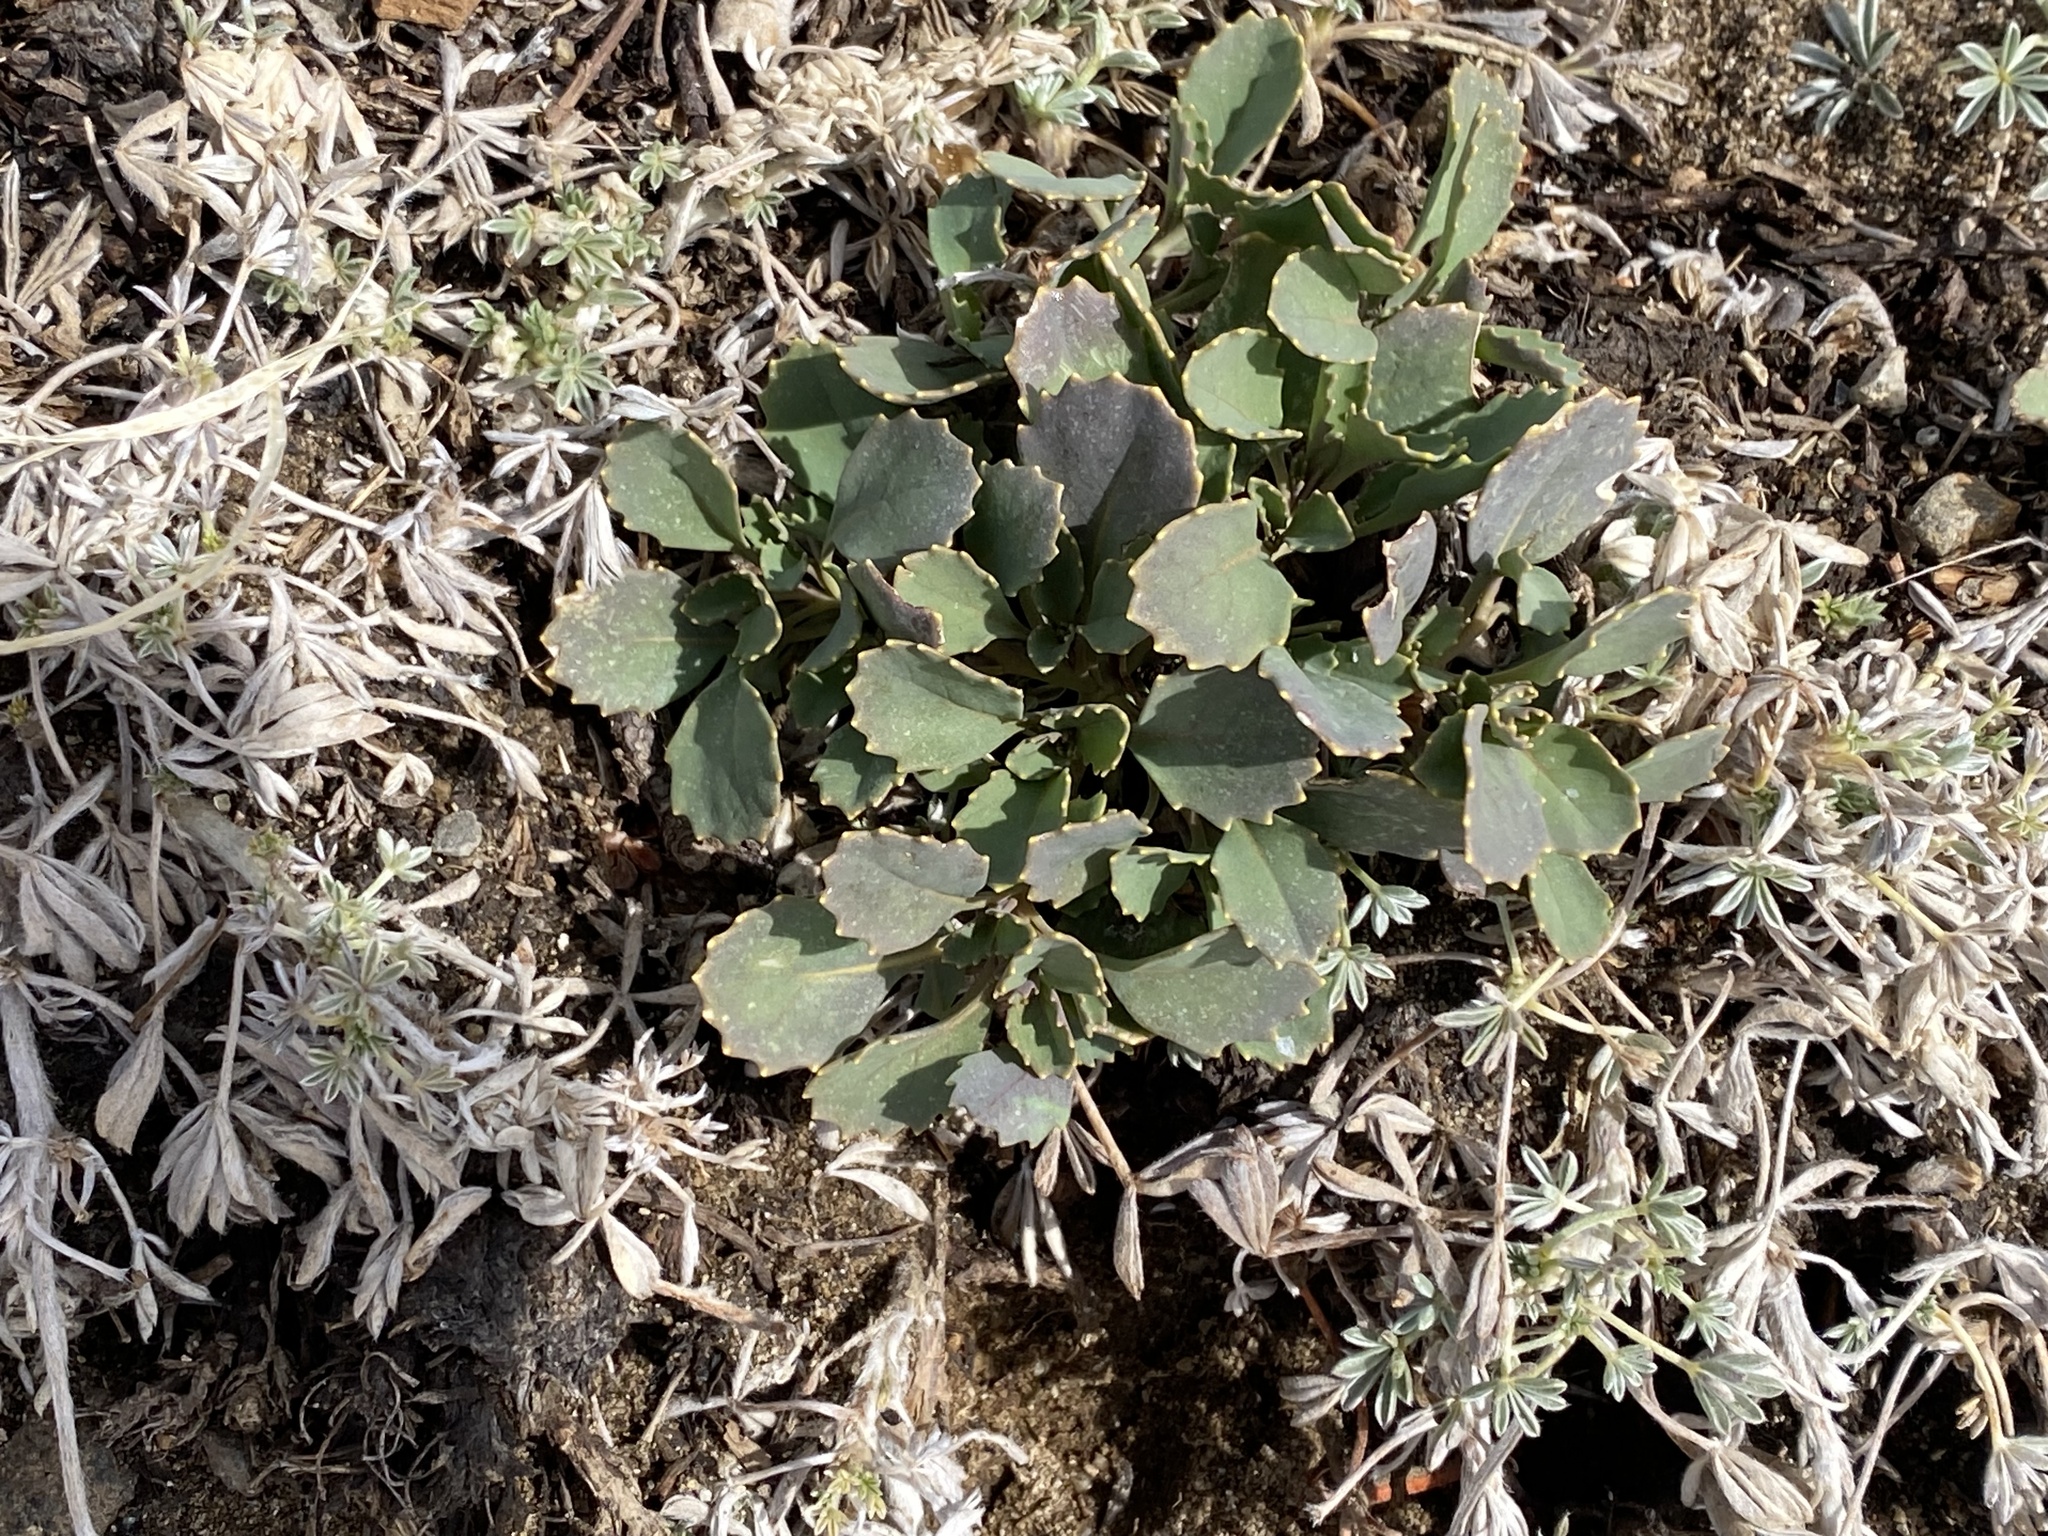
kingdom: Plantae
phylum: Tracheophyta
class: Magnoliopsida
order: Brassicales
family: Brassicaceae
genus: Streptanthus
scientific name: Streptanthus tortuosus
